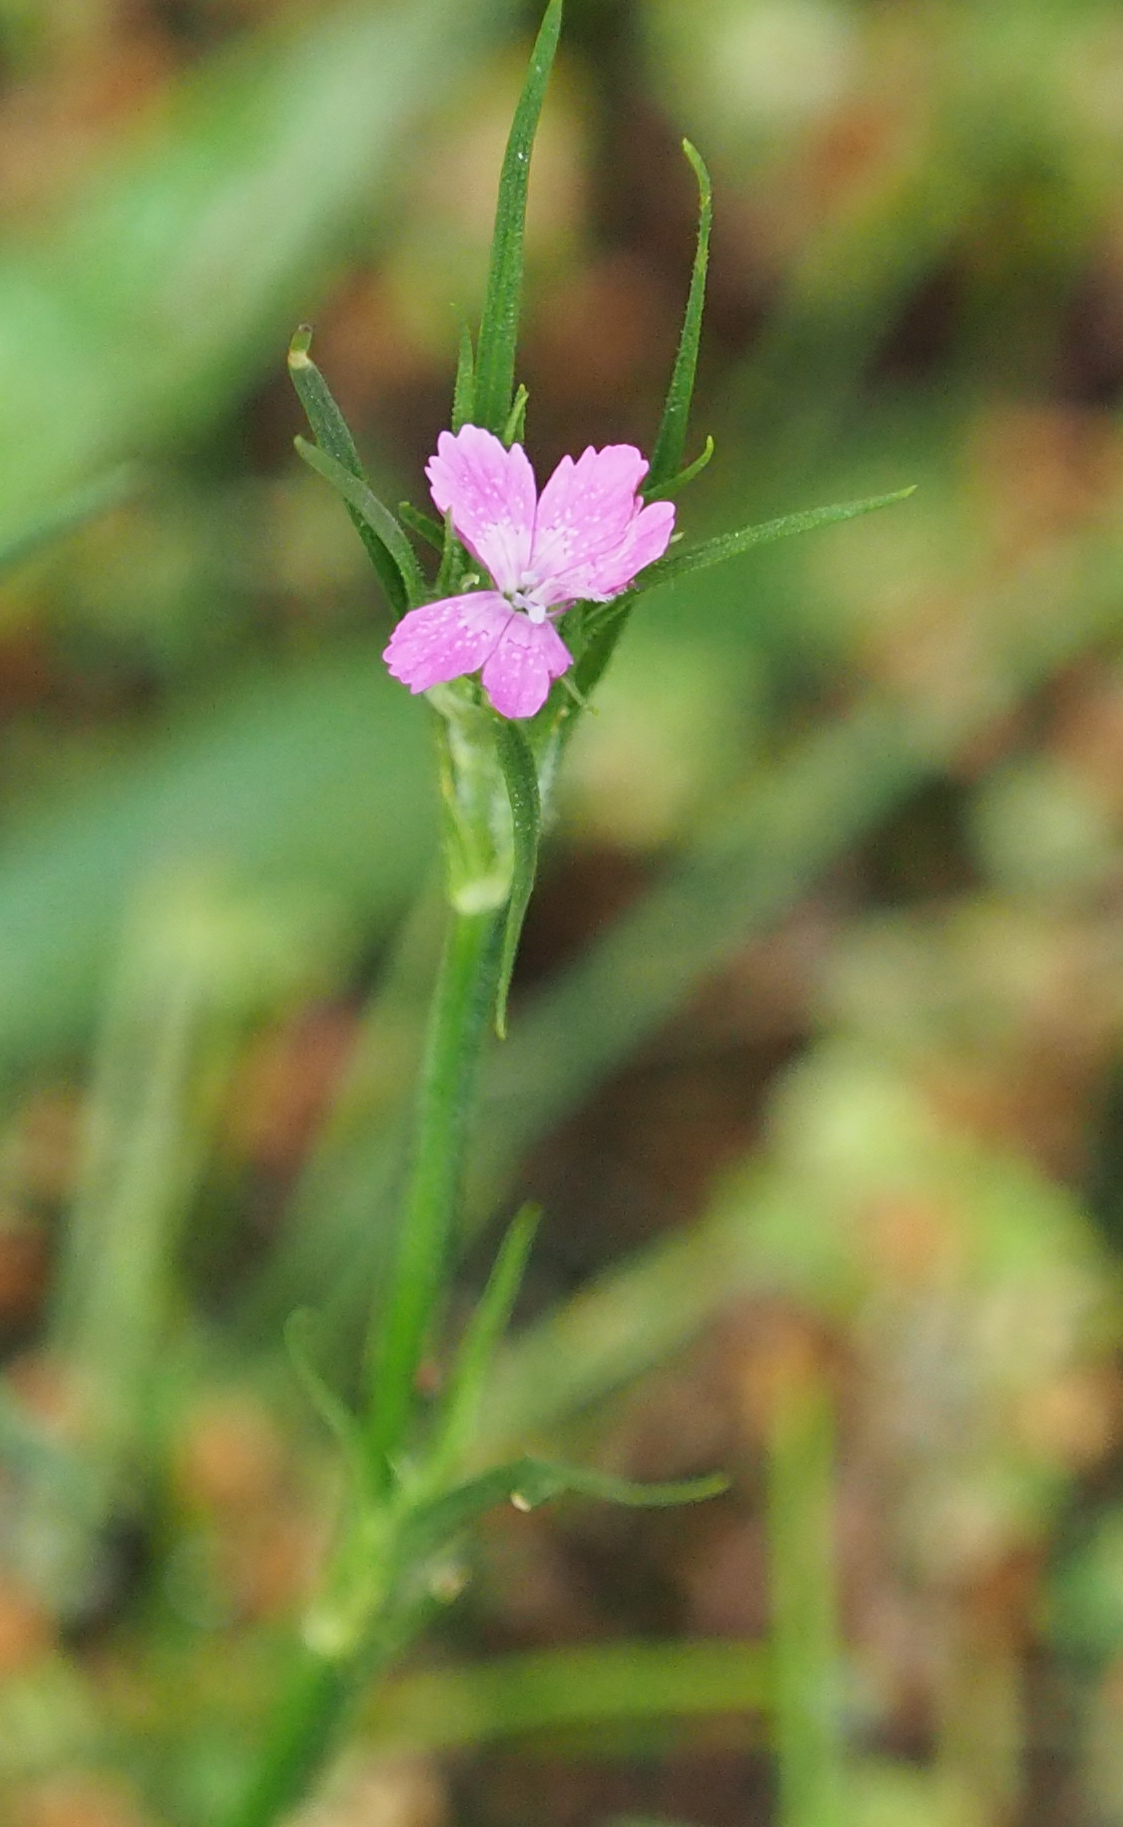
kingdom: Plantae
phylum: Tracheophyta
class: Magnoliopsida
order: Caryophyllales
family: Caryophyllaceae
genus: Dianthus
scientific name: Dianthus armeria
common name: Deptford pink
